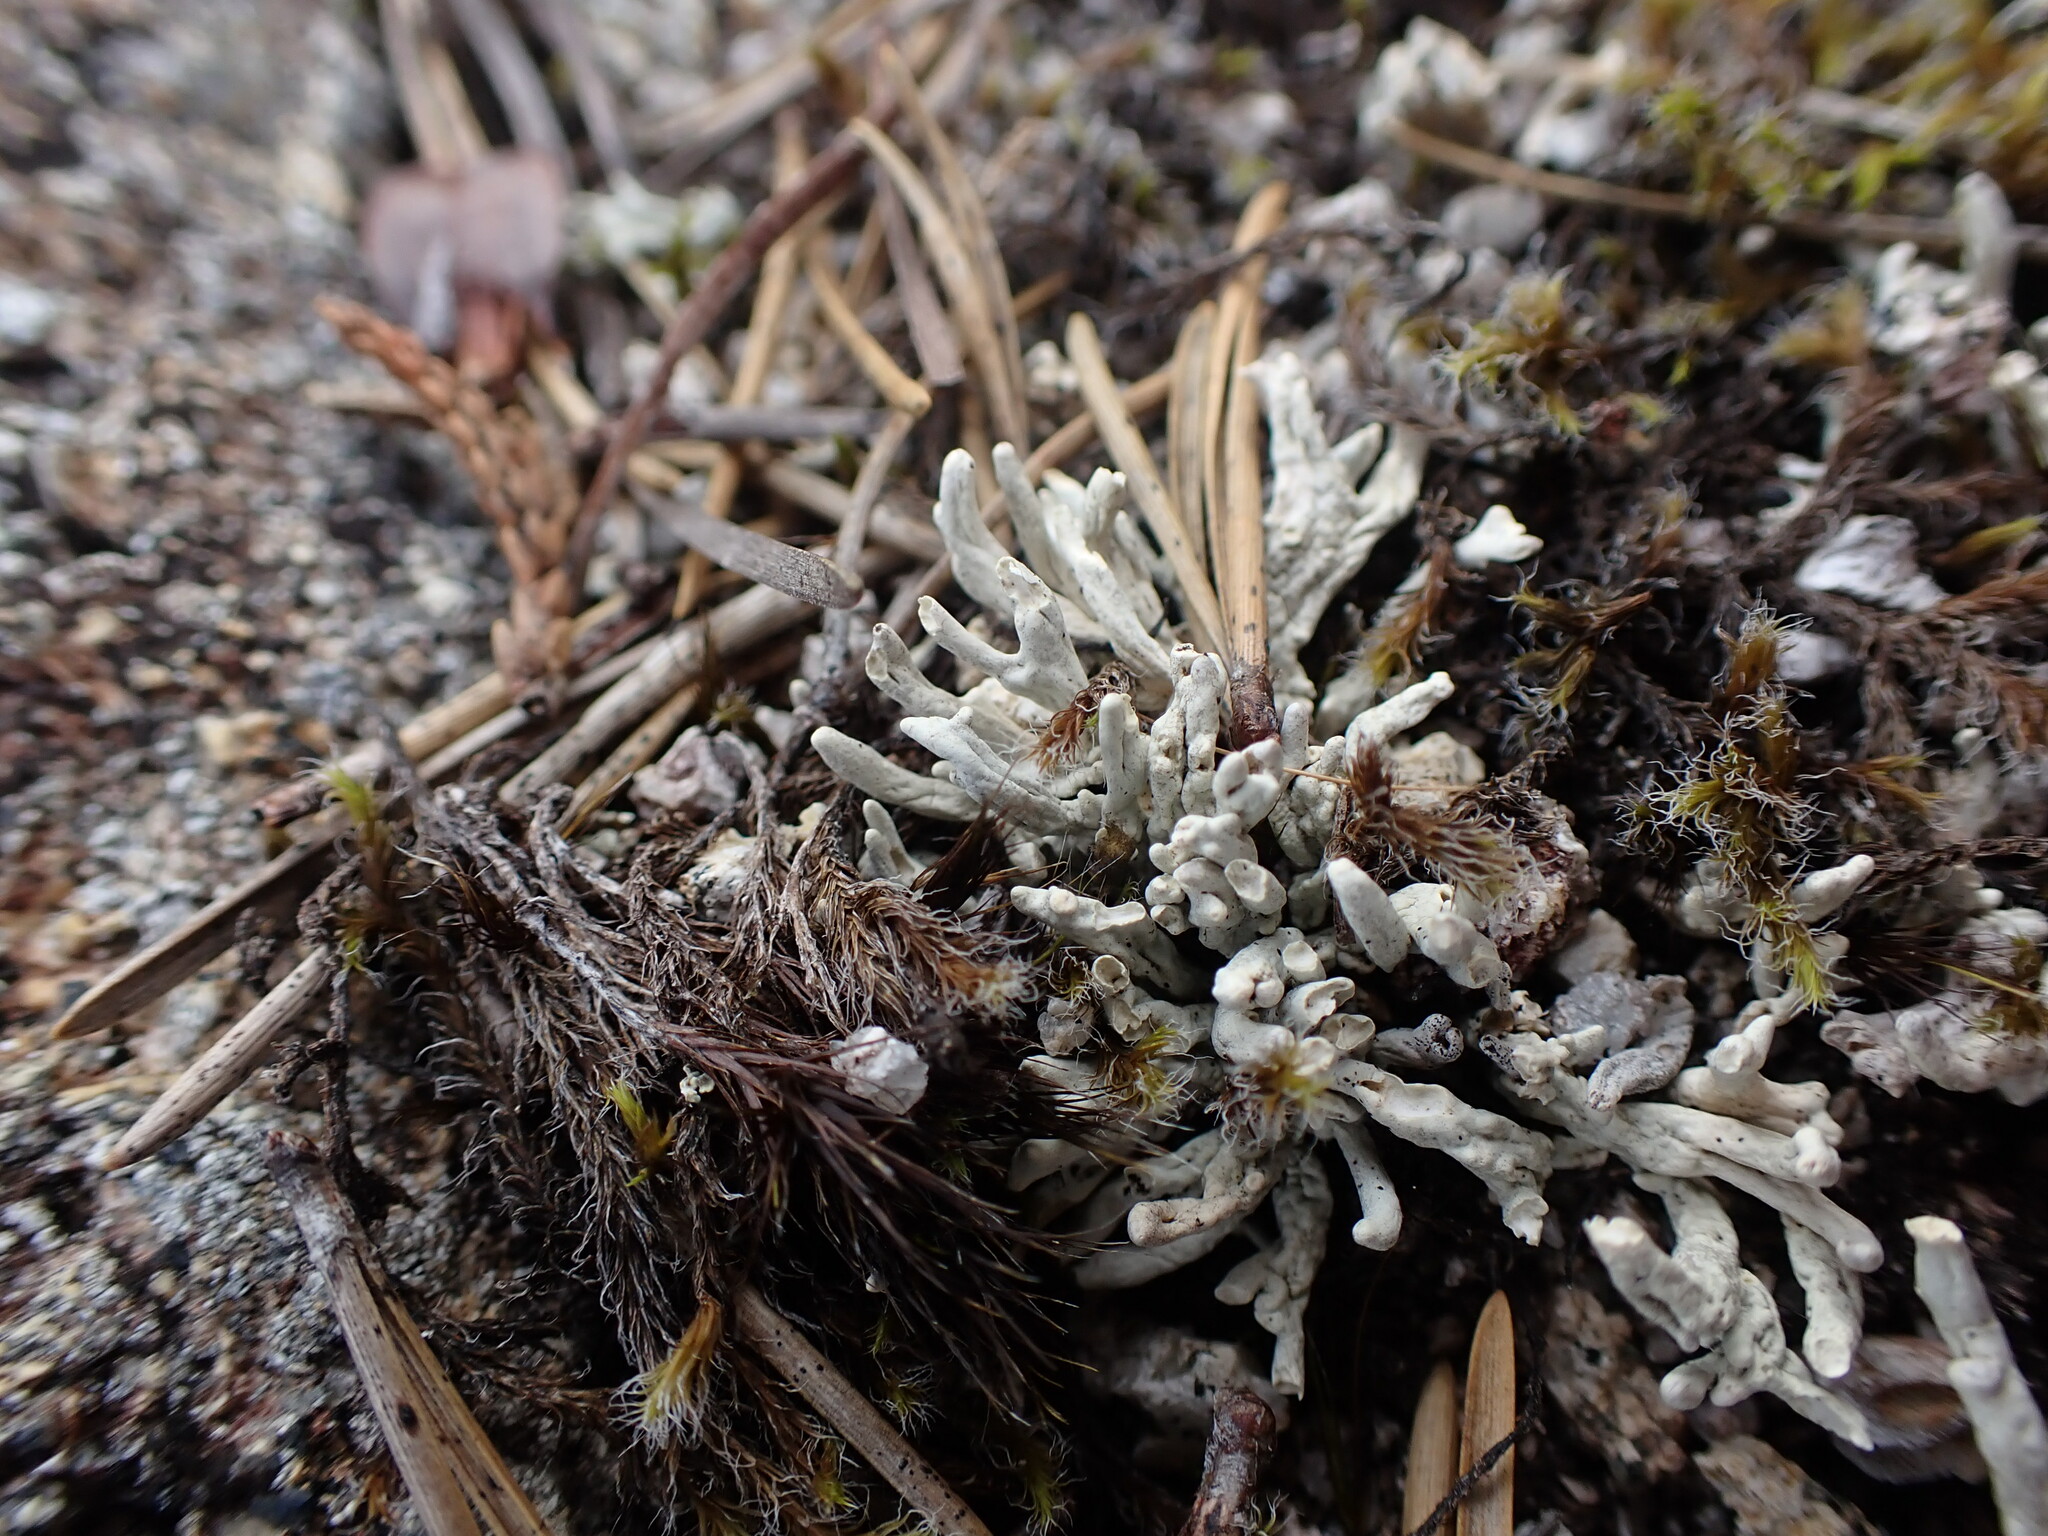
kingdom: Fungi
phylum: Ascomycota
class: Lecanoromycetes
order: Pertusariales
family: Icmadophilaceae
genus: Siphula
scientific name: Siphula ceratites
